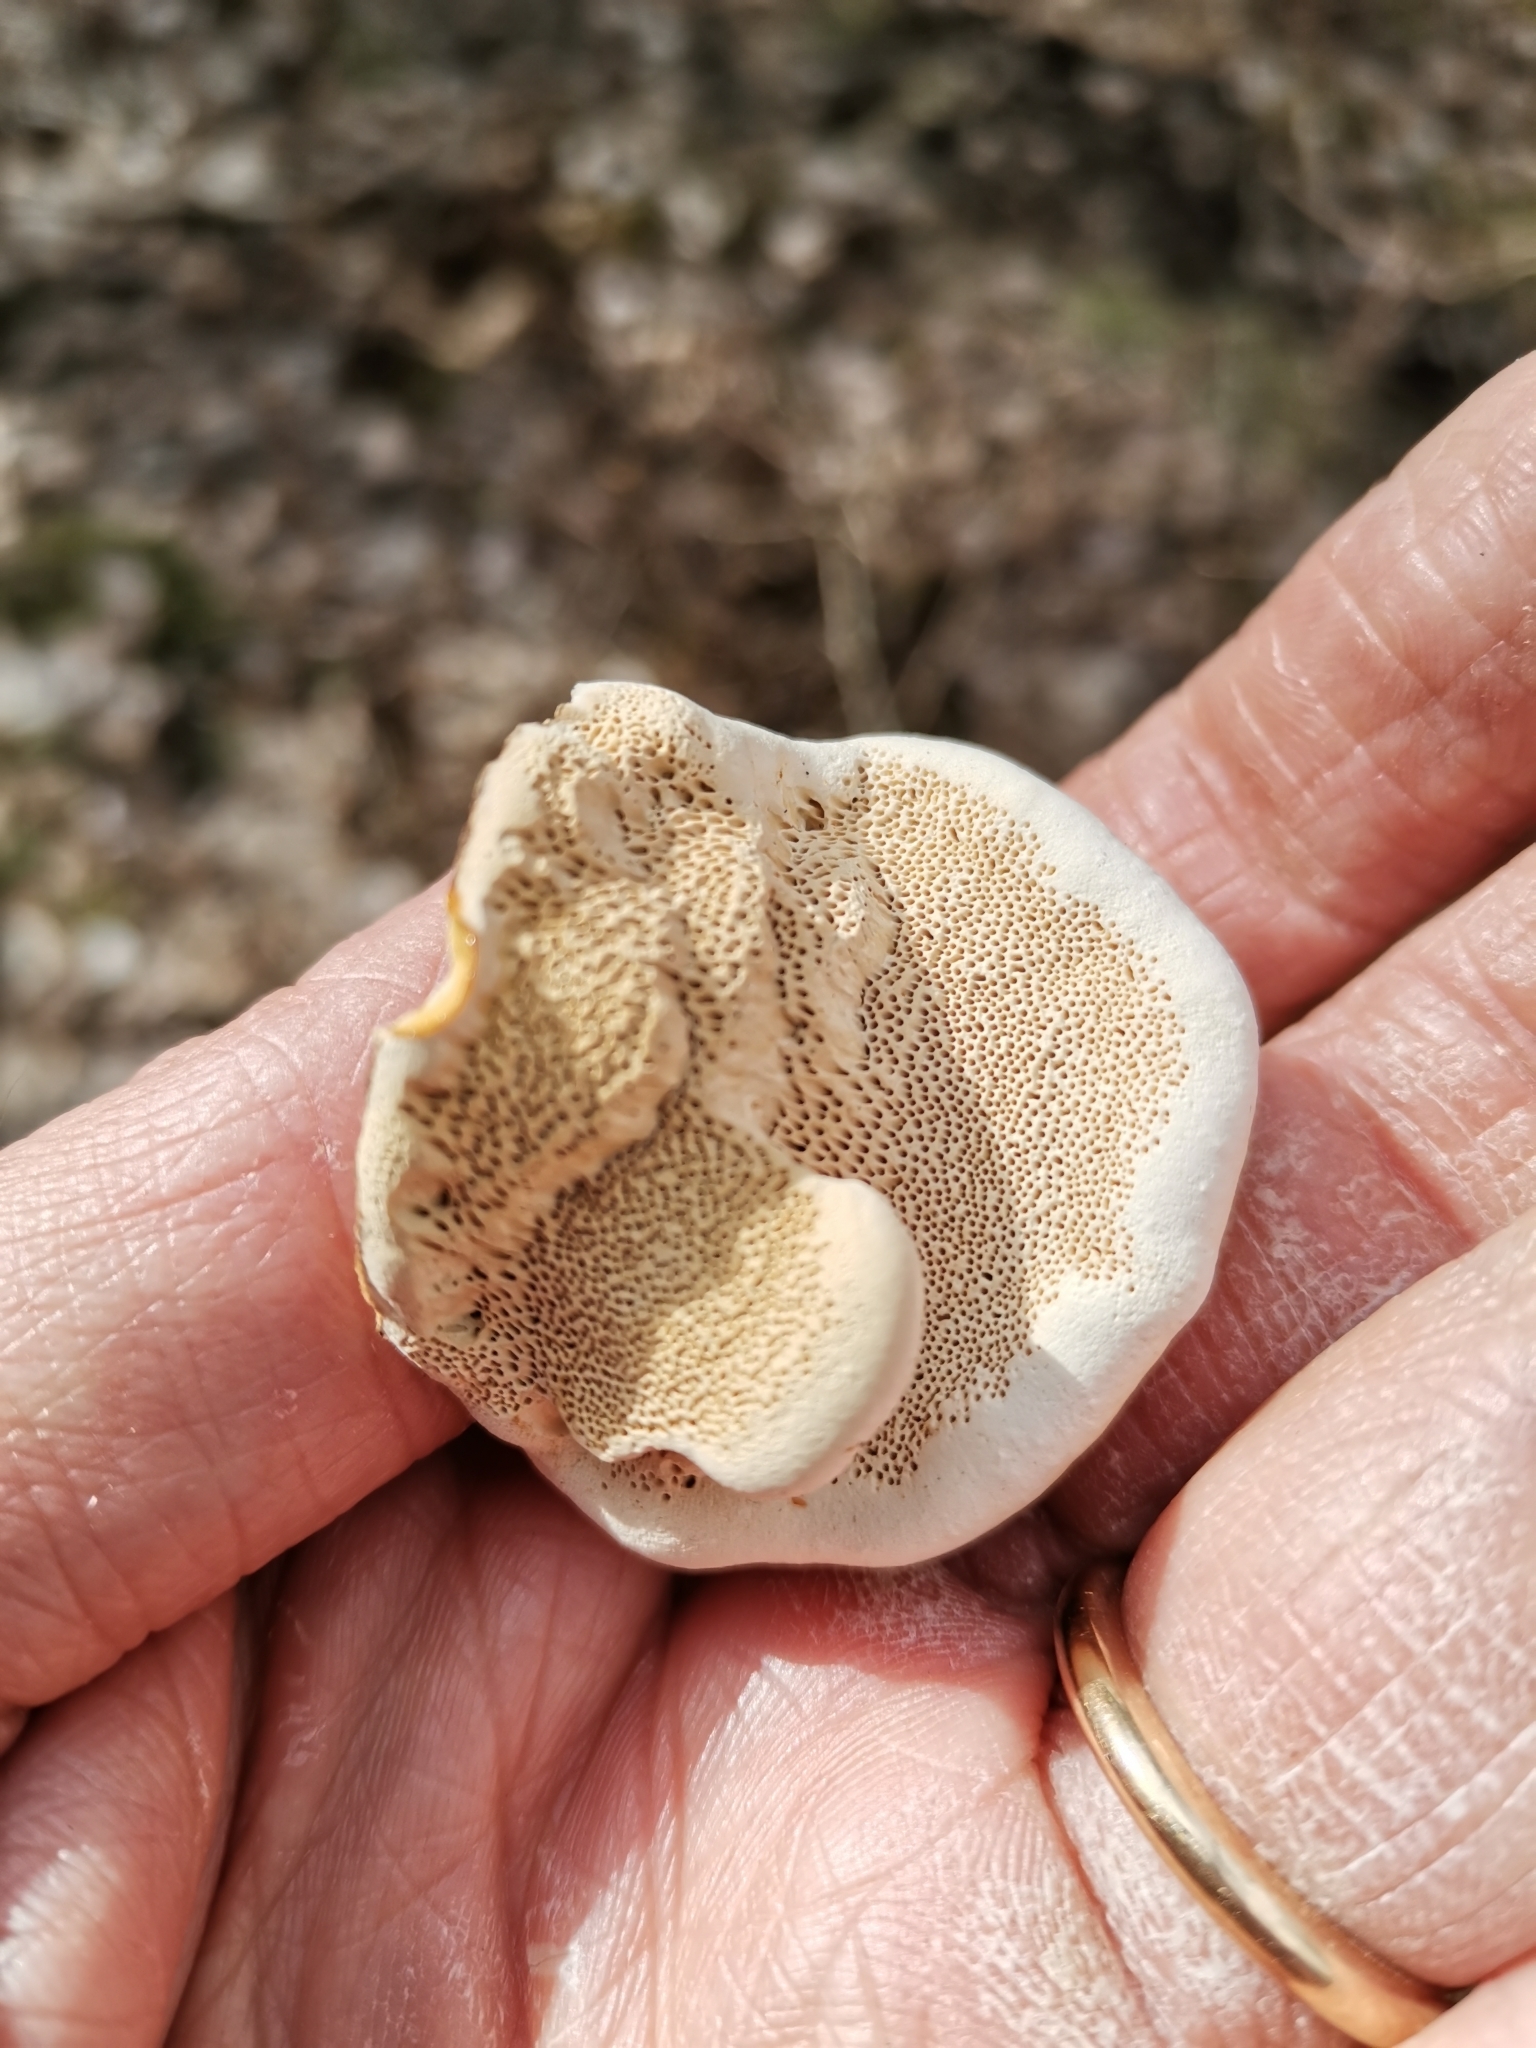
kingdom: Fungi
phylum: Basidiomycota
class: Agaricomycetes
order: Polyporales
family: Fomitopsidaceae
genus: Fomitopsis
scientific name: Fomitopsis pinicola
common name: Red-belted bracket
